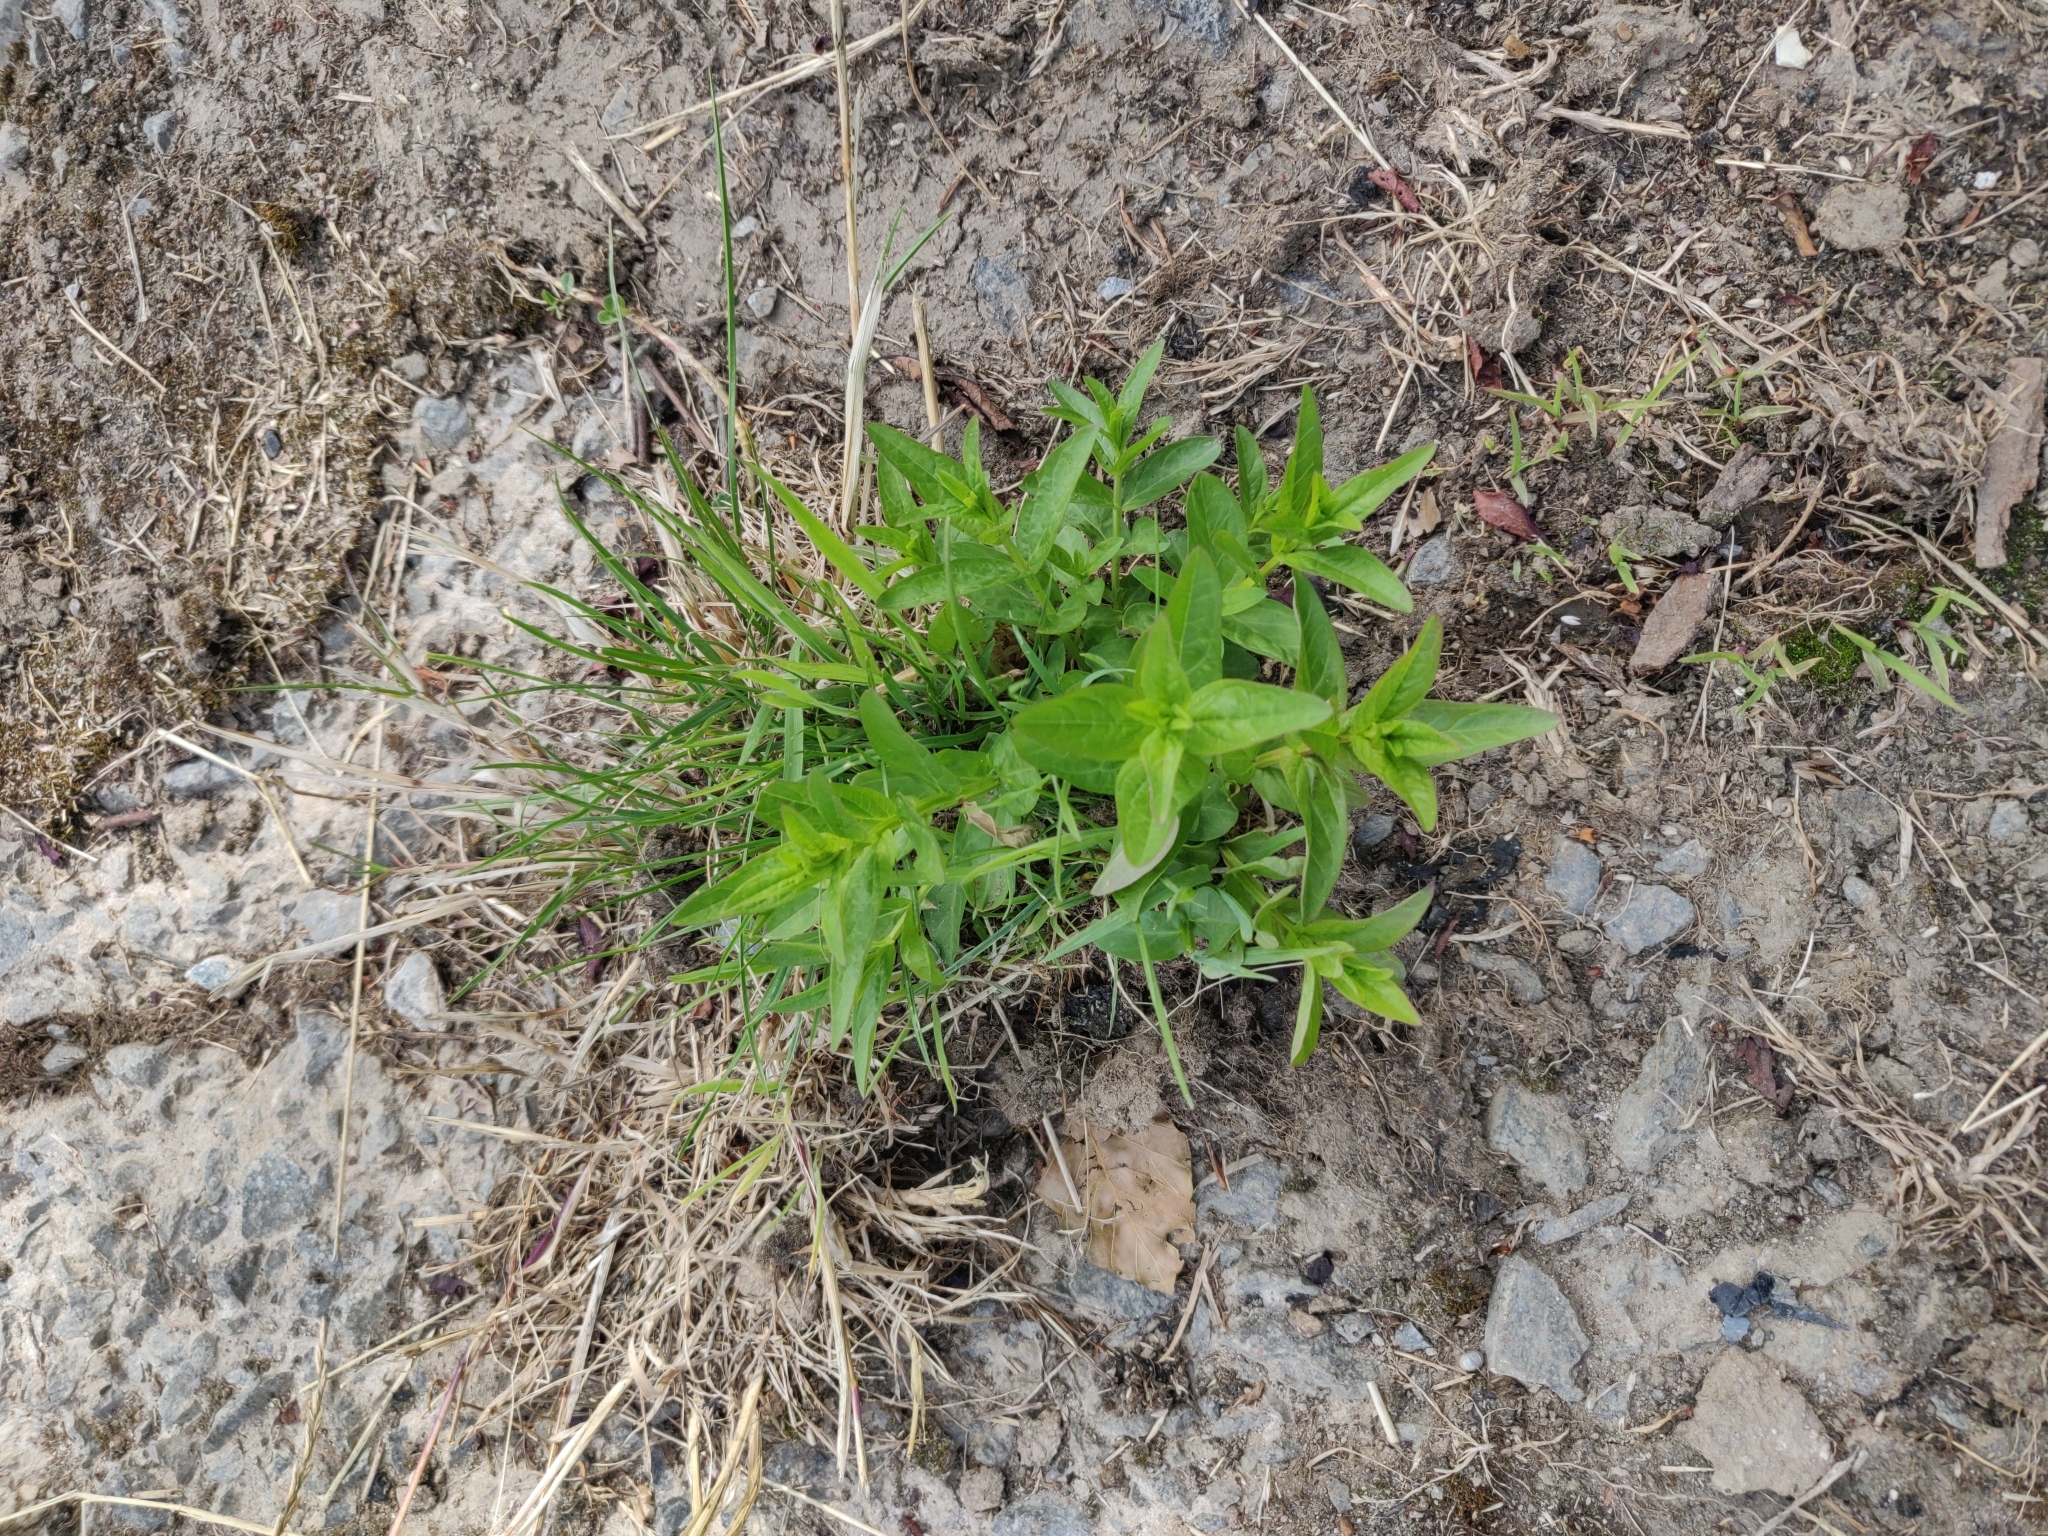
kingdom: Plantae
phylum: Tracheophyta
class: Magnoliopsida
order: Myrtales
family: Lythraceae
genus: Lythrum
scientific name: Lythrum salicaria
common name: Purple loosestrife
